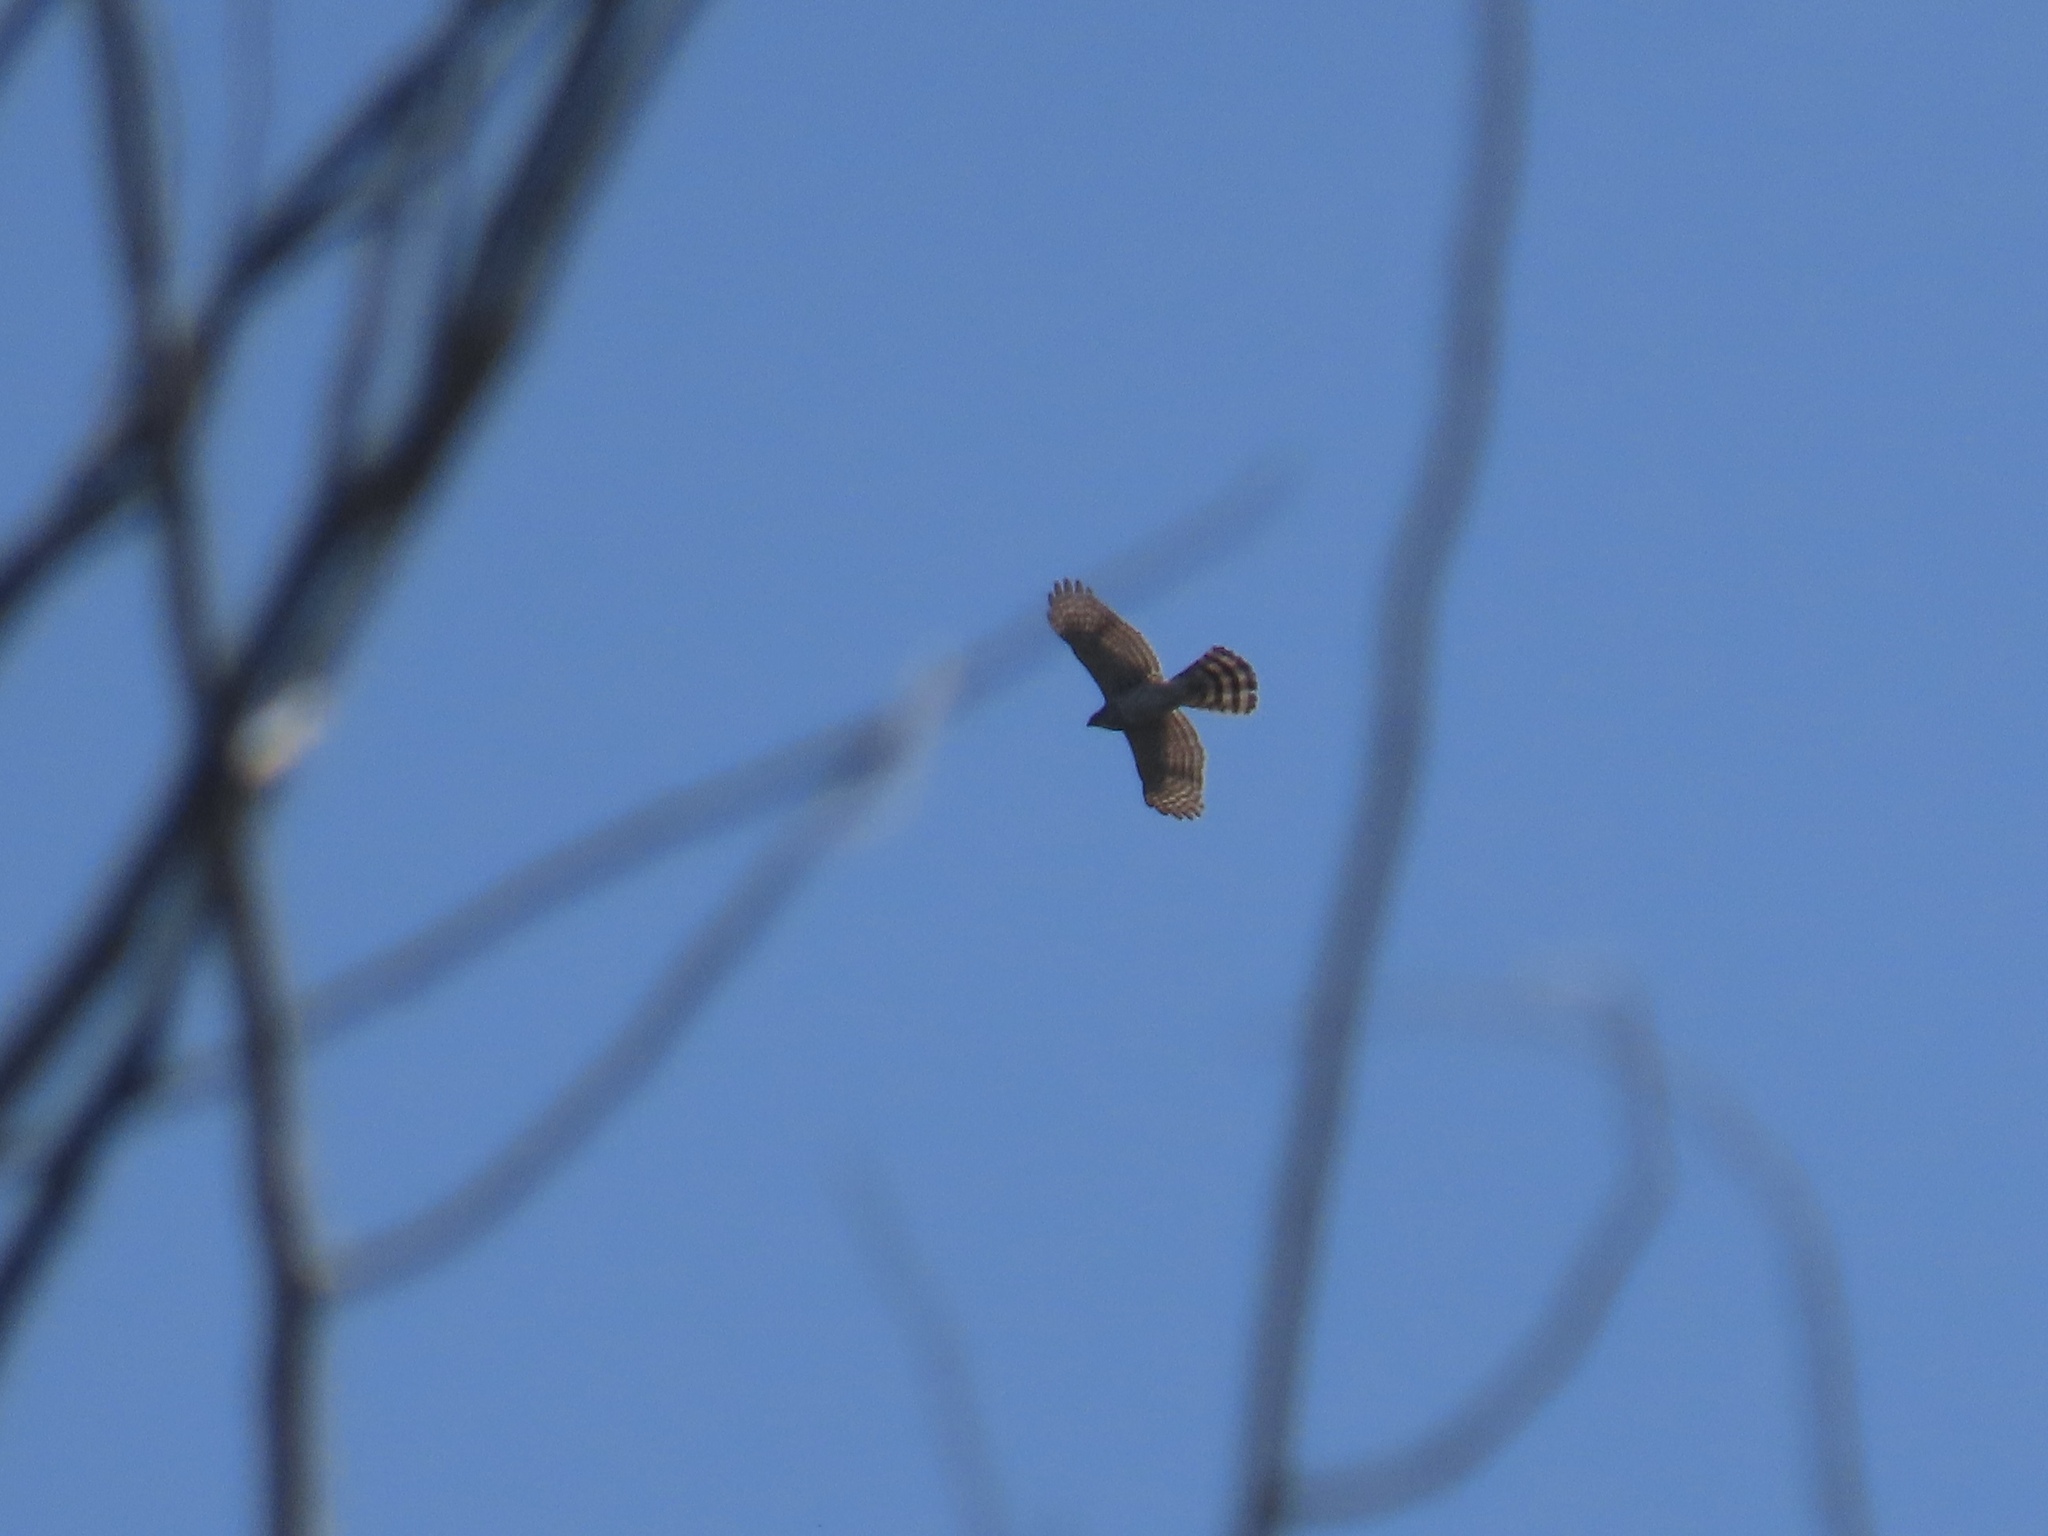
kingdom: Animalia
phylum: Chordata
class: Aves
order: Accipitriformes
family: Accipitridae
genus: Accipiter
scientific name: Accipiter cooperii
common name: Cooper's hawk
